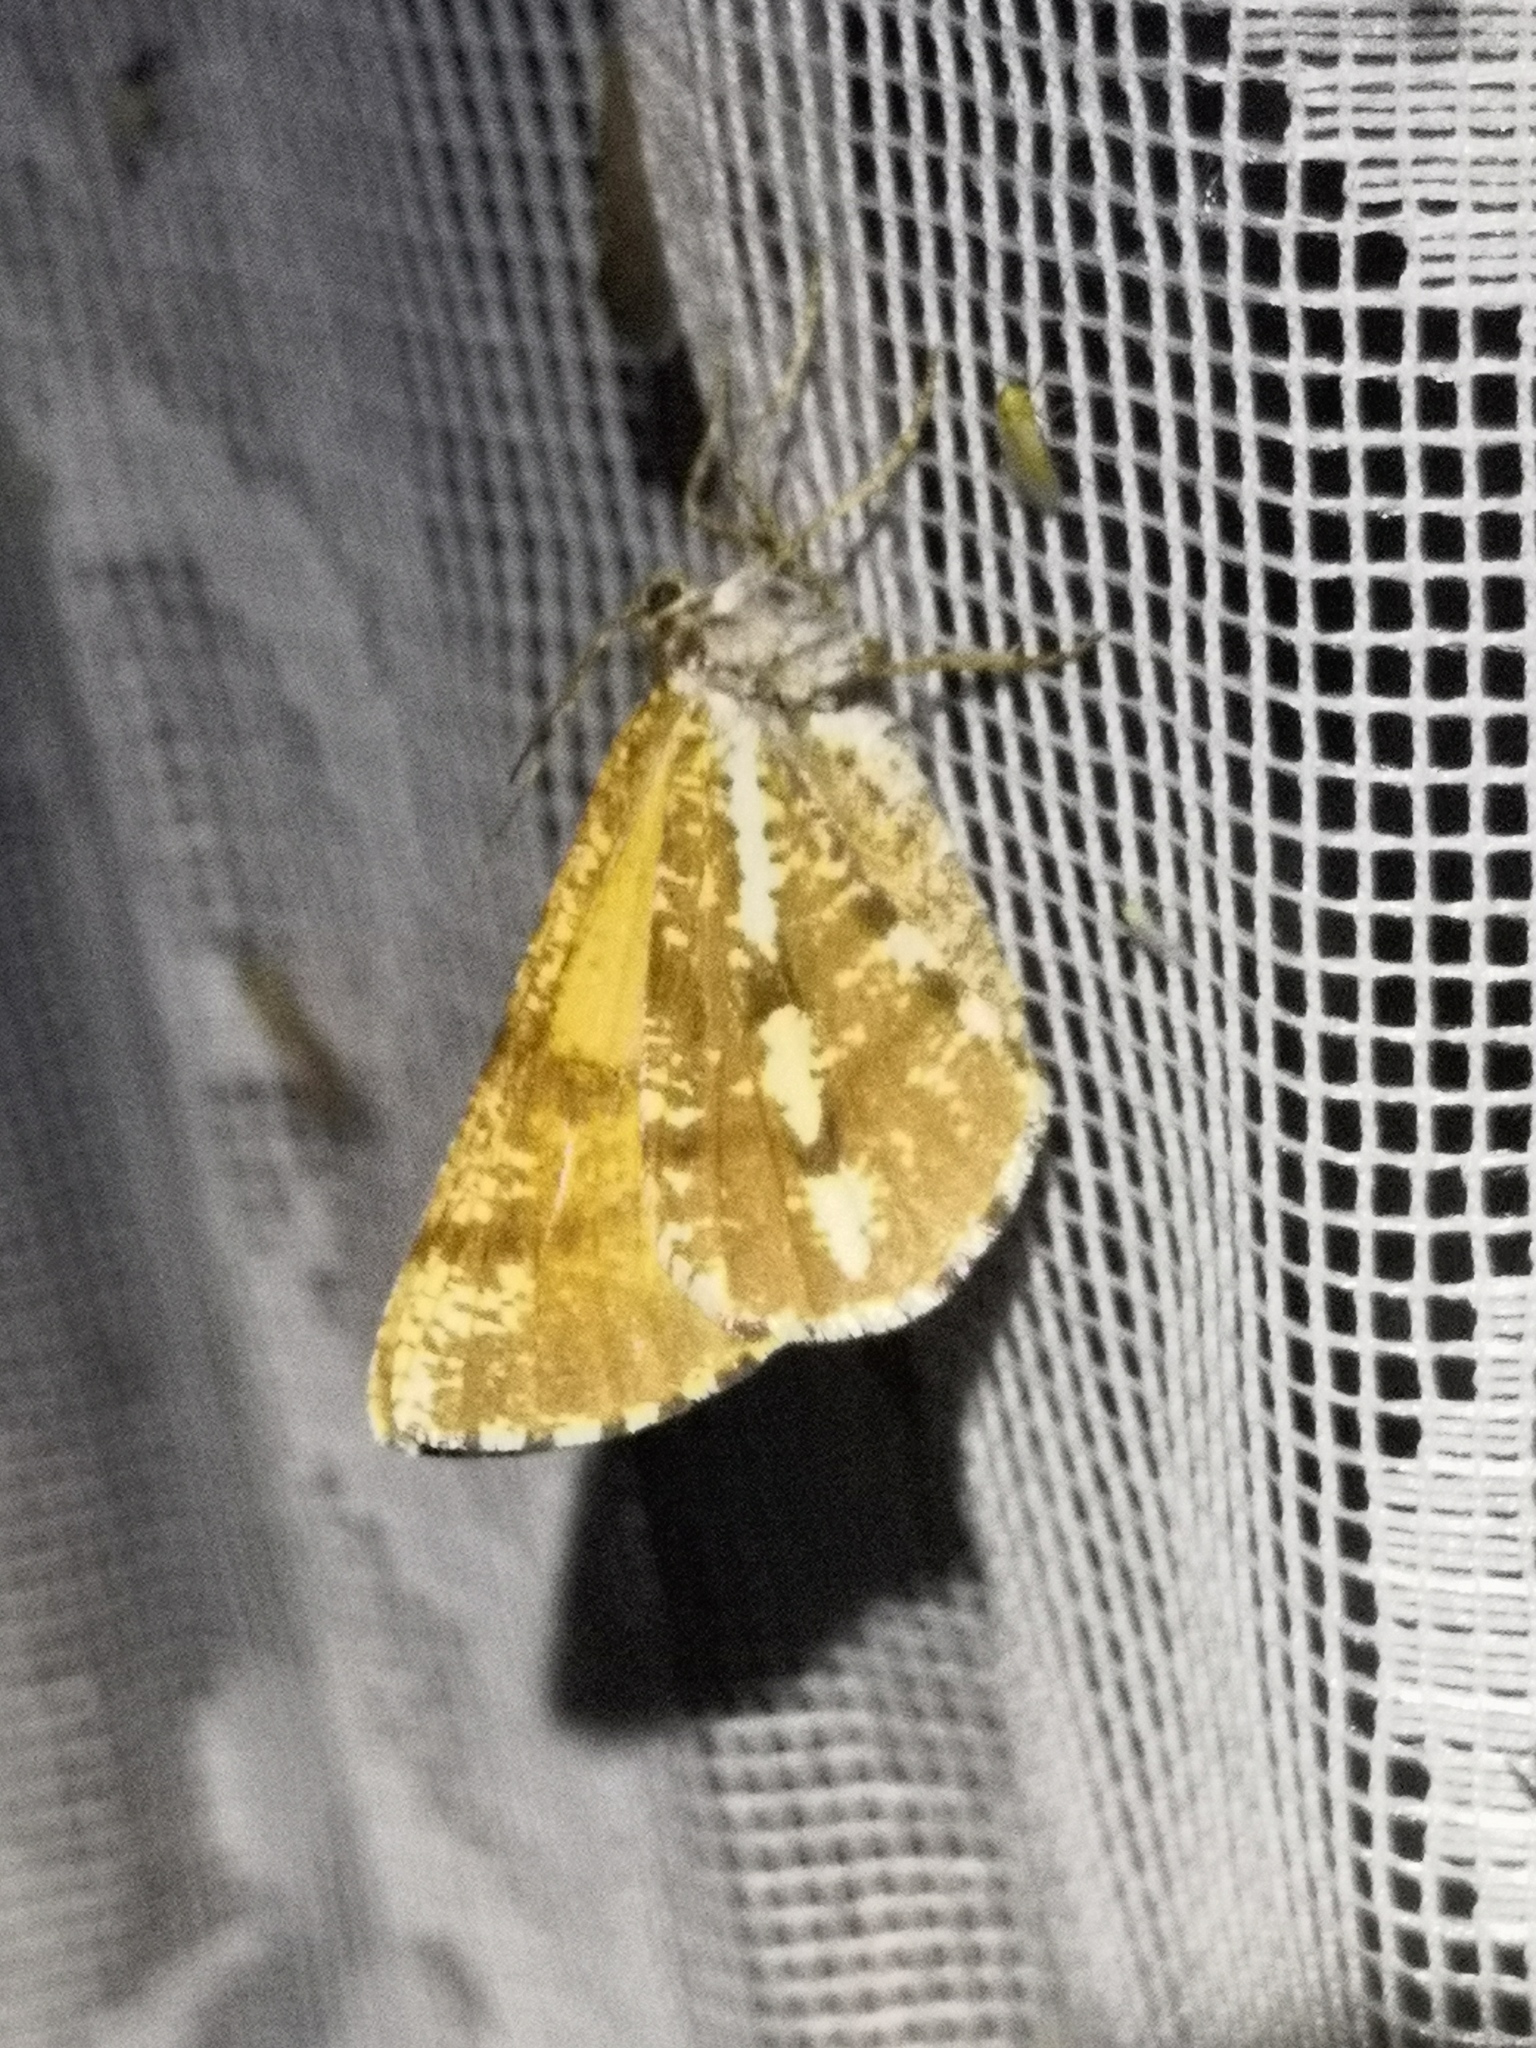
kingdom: Animalia
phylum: Arthropoda
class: Insecta
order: Lepidoptera
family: Geometridae
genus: Bupalus
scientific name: Bupalus piniaria
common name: Bordered white
